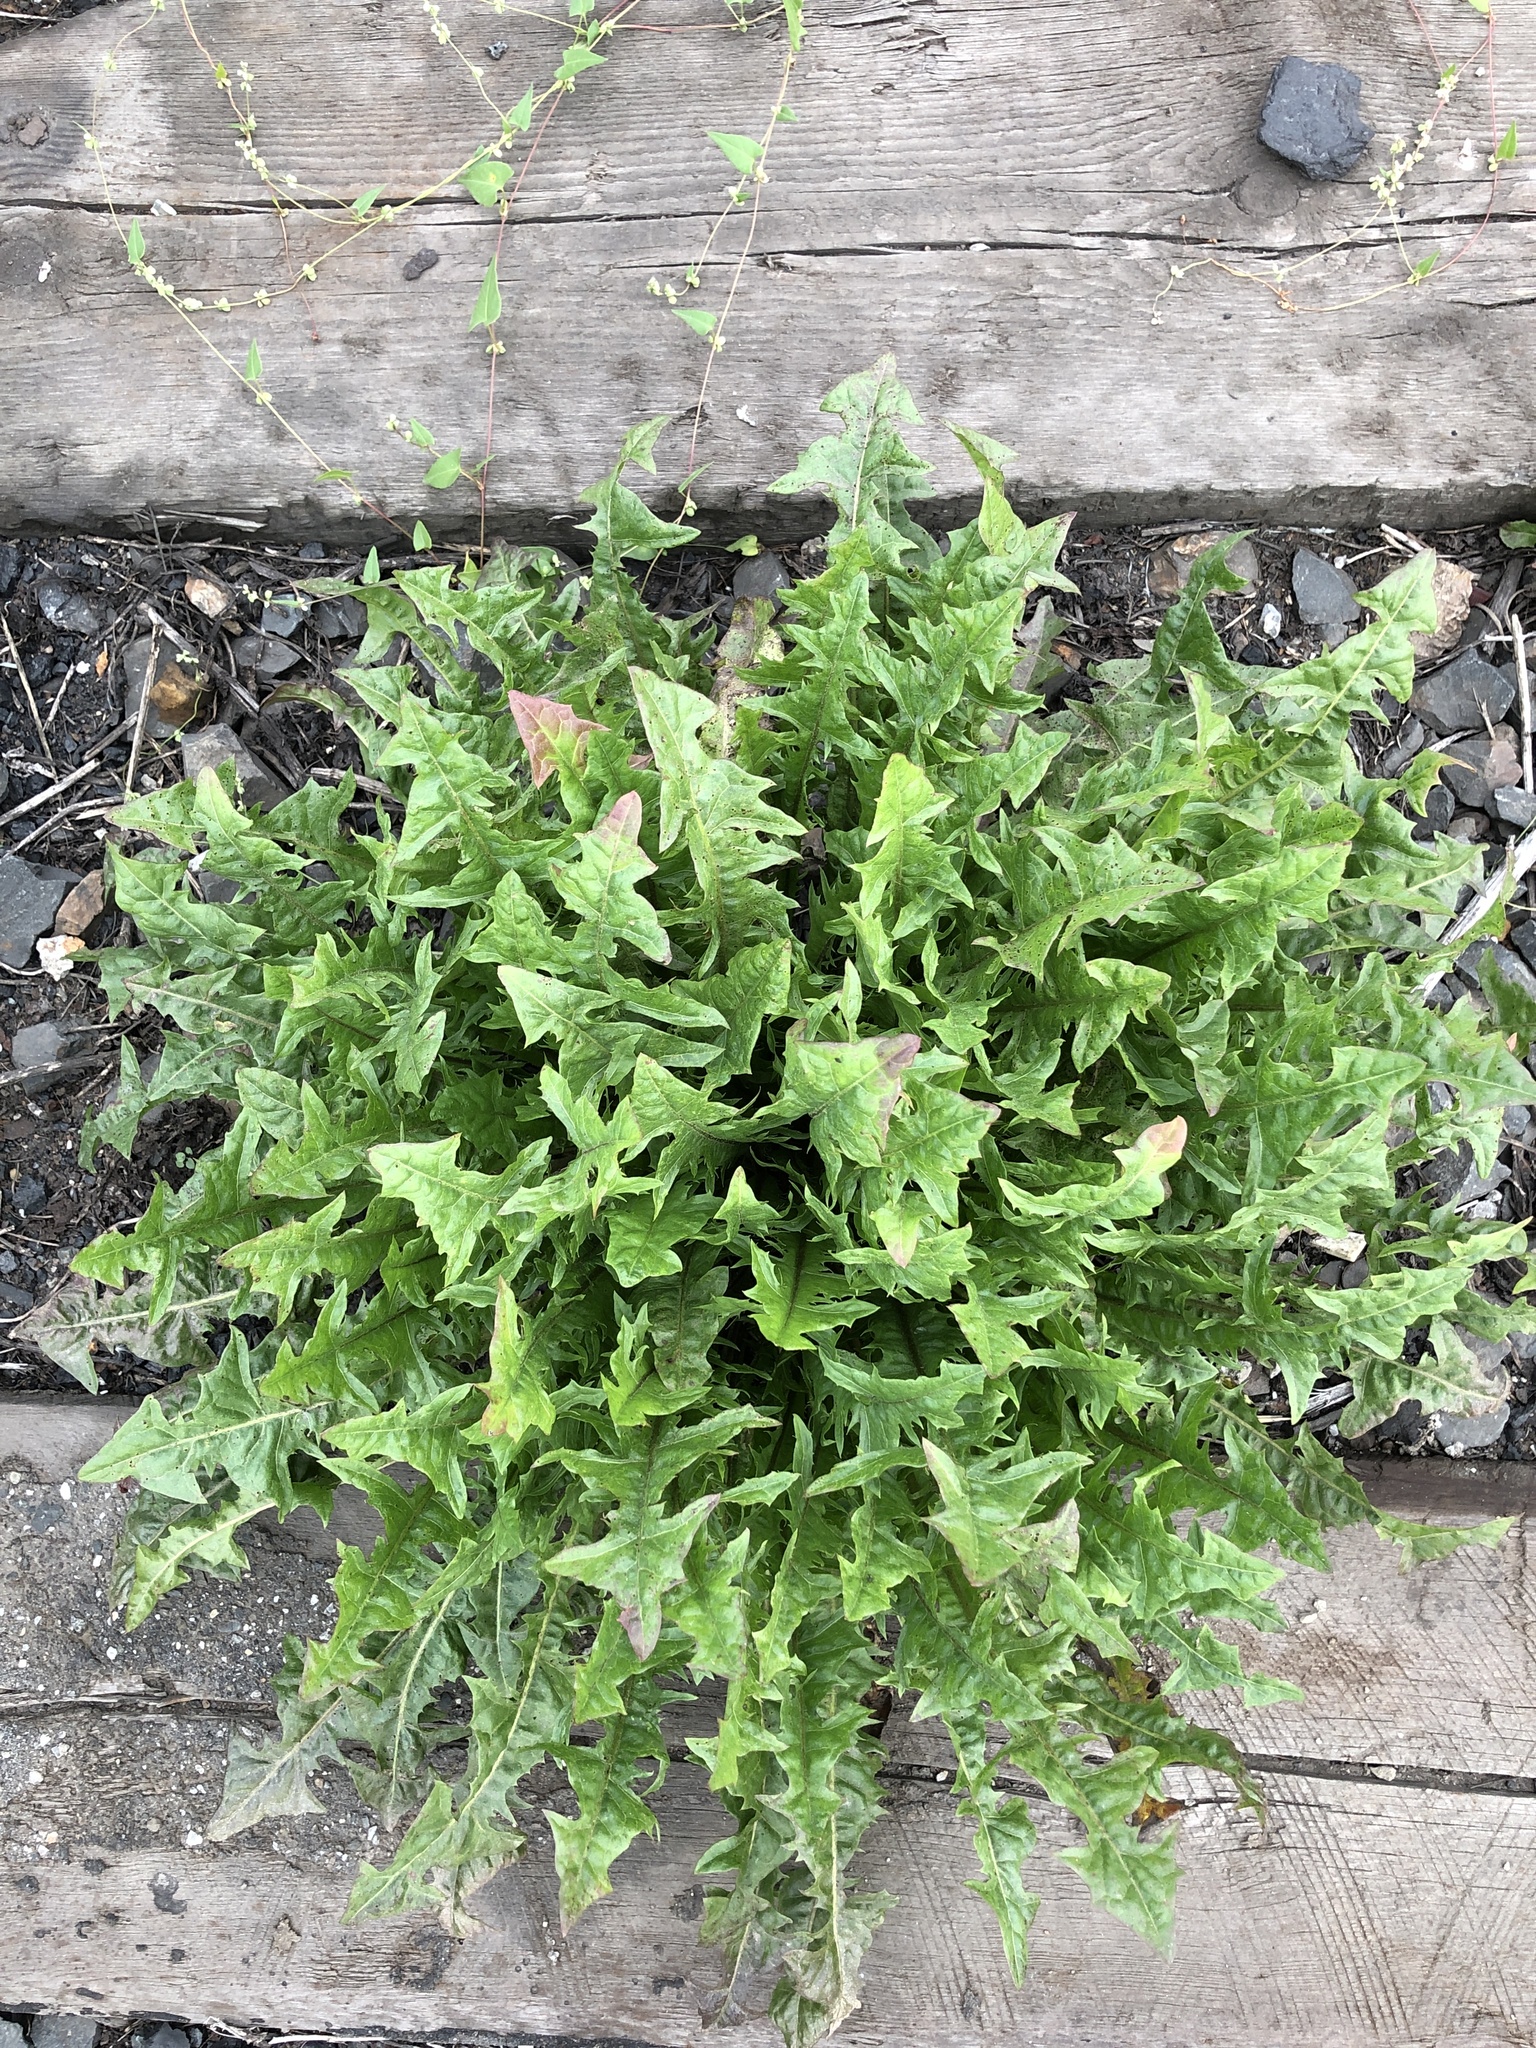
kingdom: Plantae
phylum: Tracheophyta
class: Magnoliopsida
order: Asterales
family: Asteraceae
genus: Taraxacum
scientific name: Taraxacum officinale
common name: Common dandelion
